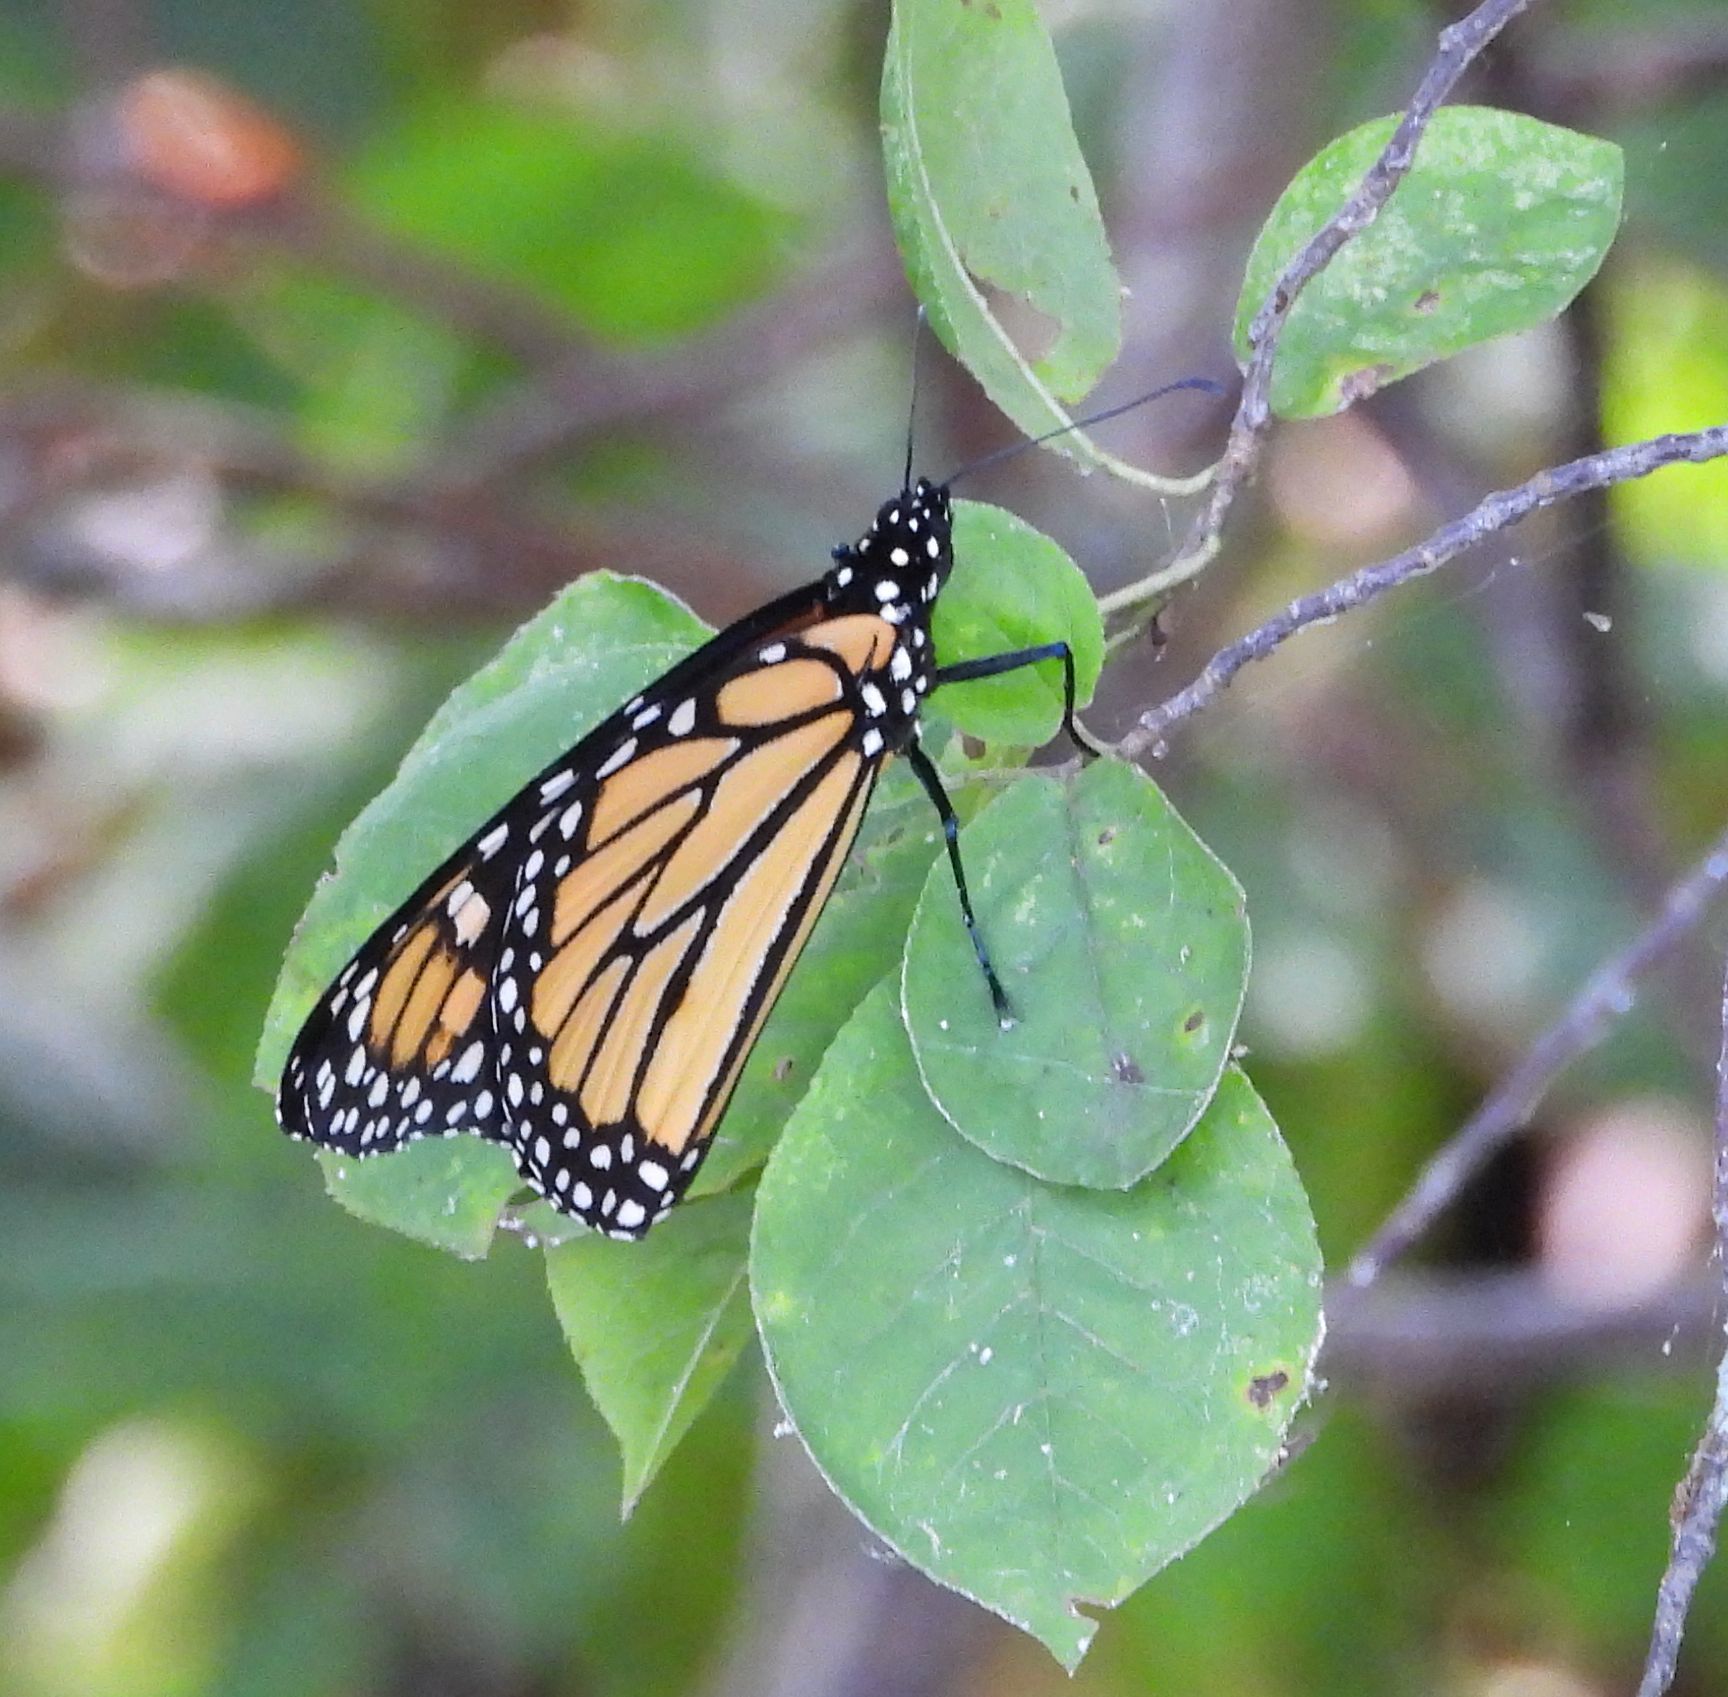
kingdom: Animalia
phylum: Arthropoda
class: Insecta
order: Lepidoptera
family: Nymphalidae
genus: Danaus
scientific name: Danaus plexippus
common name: Monarch
